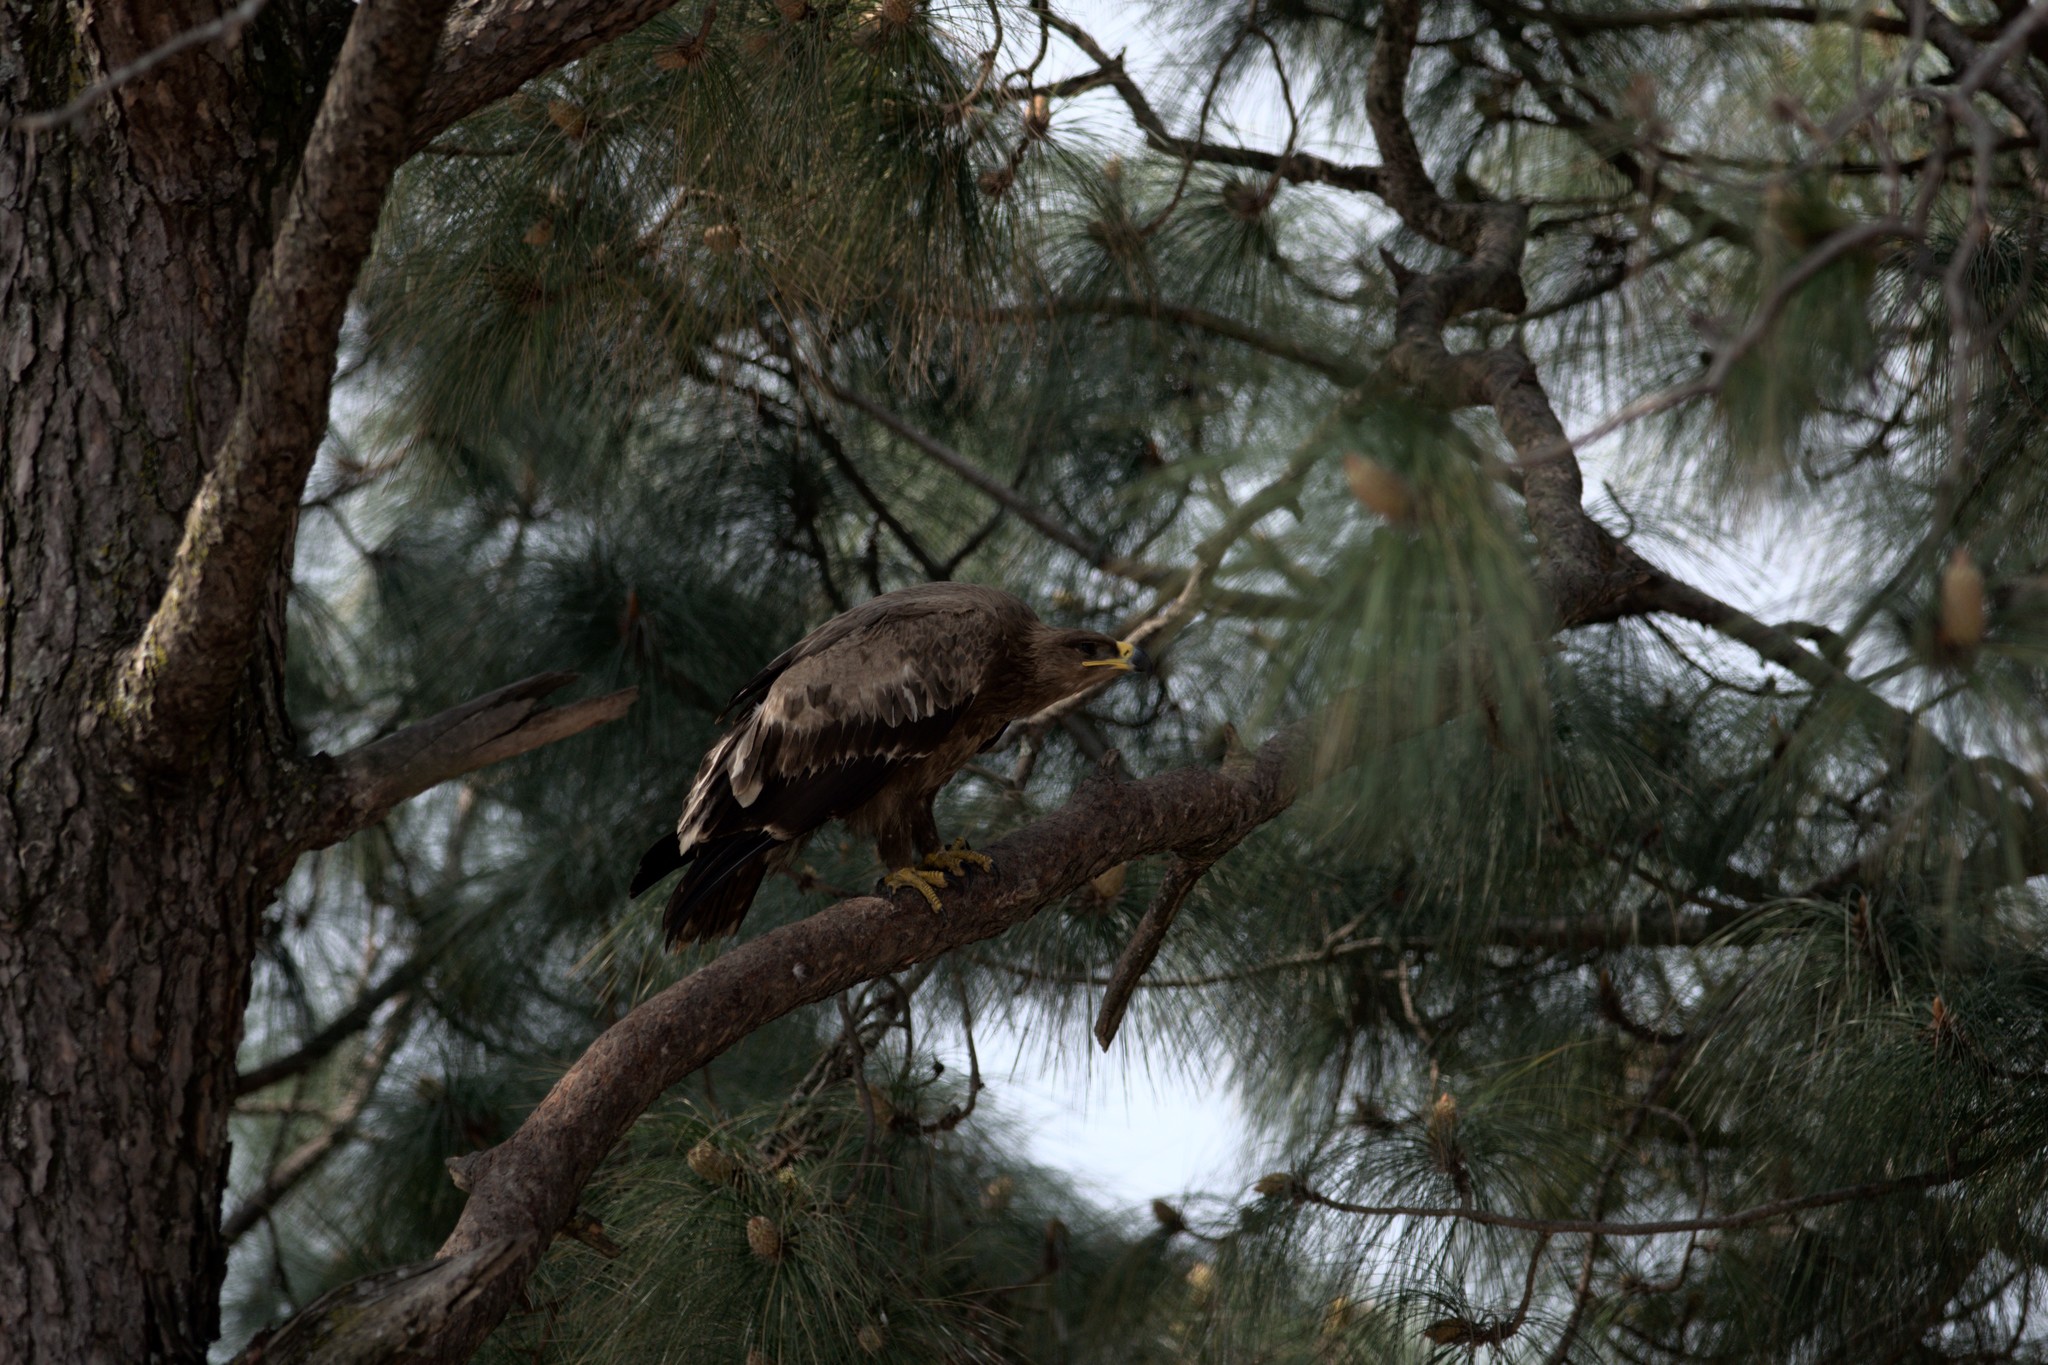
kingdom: Animalia
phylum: Chordata
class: Aves
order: Accipitriformes
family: Accipitridae
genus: Aquila
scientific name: Aquila nipalensis
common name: Steppe eagle
